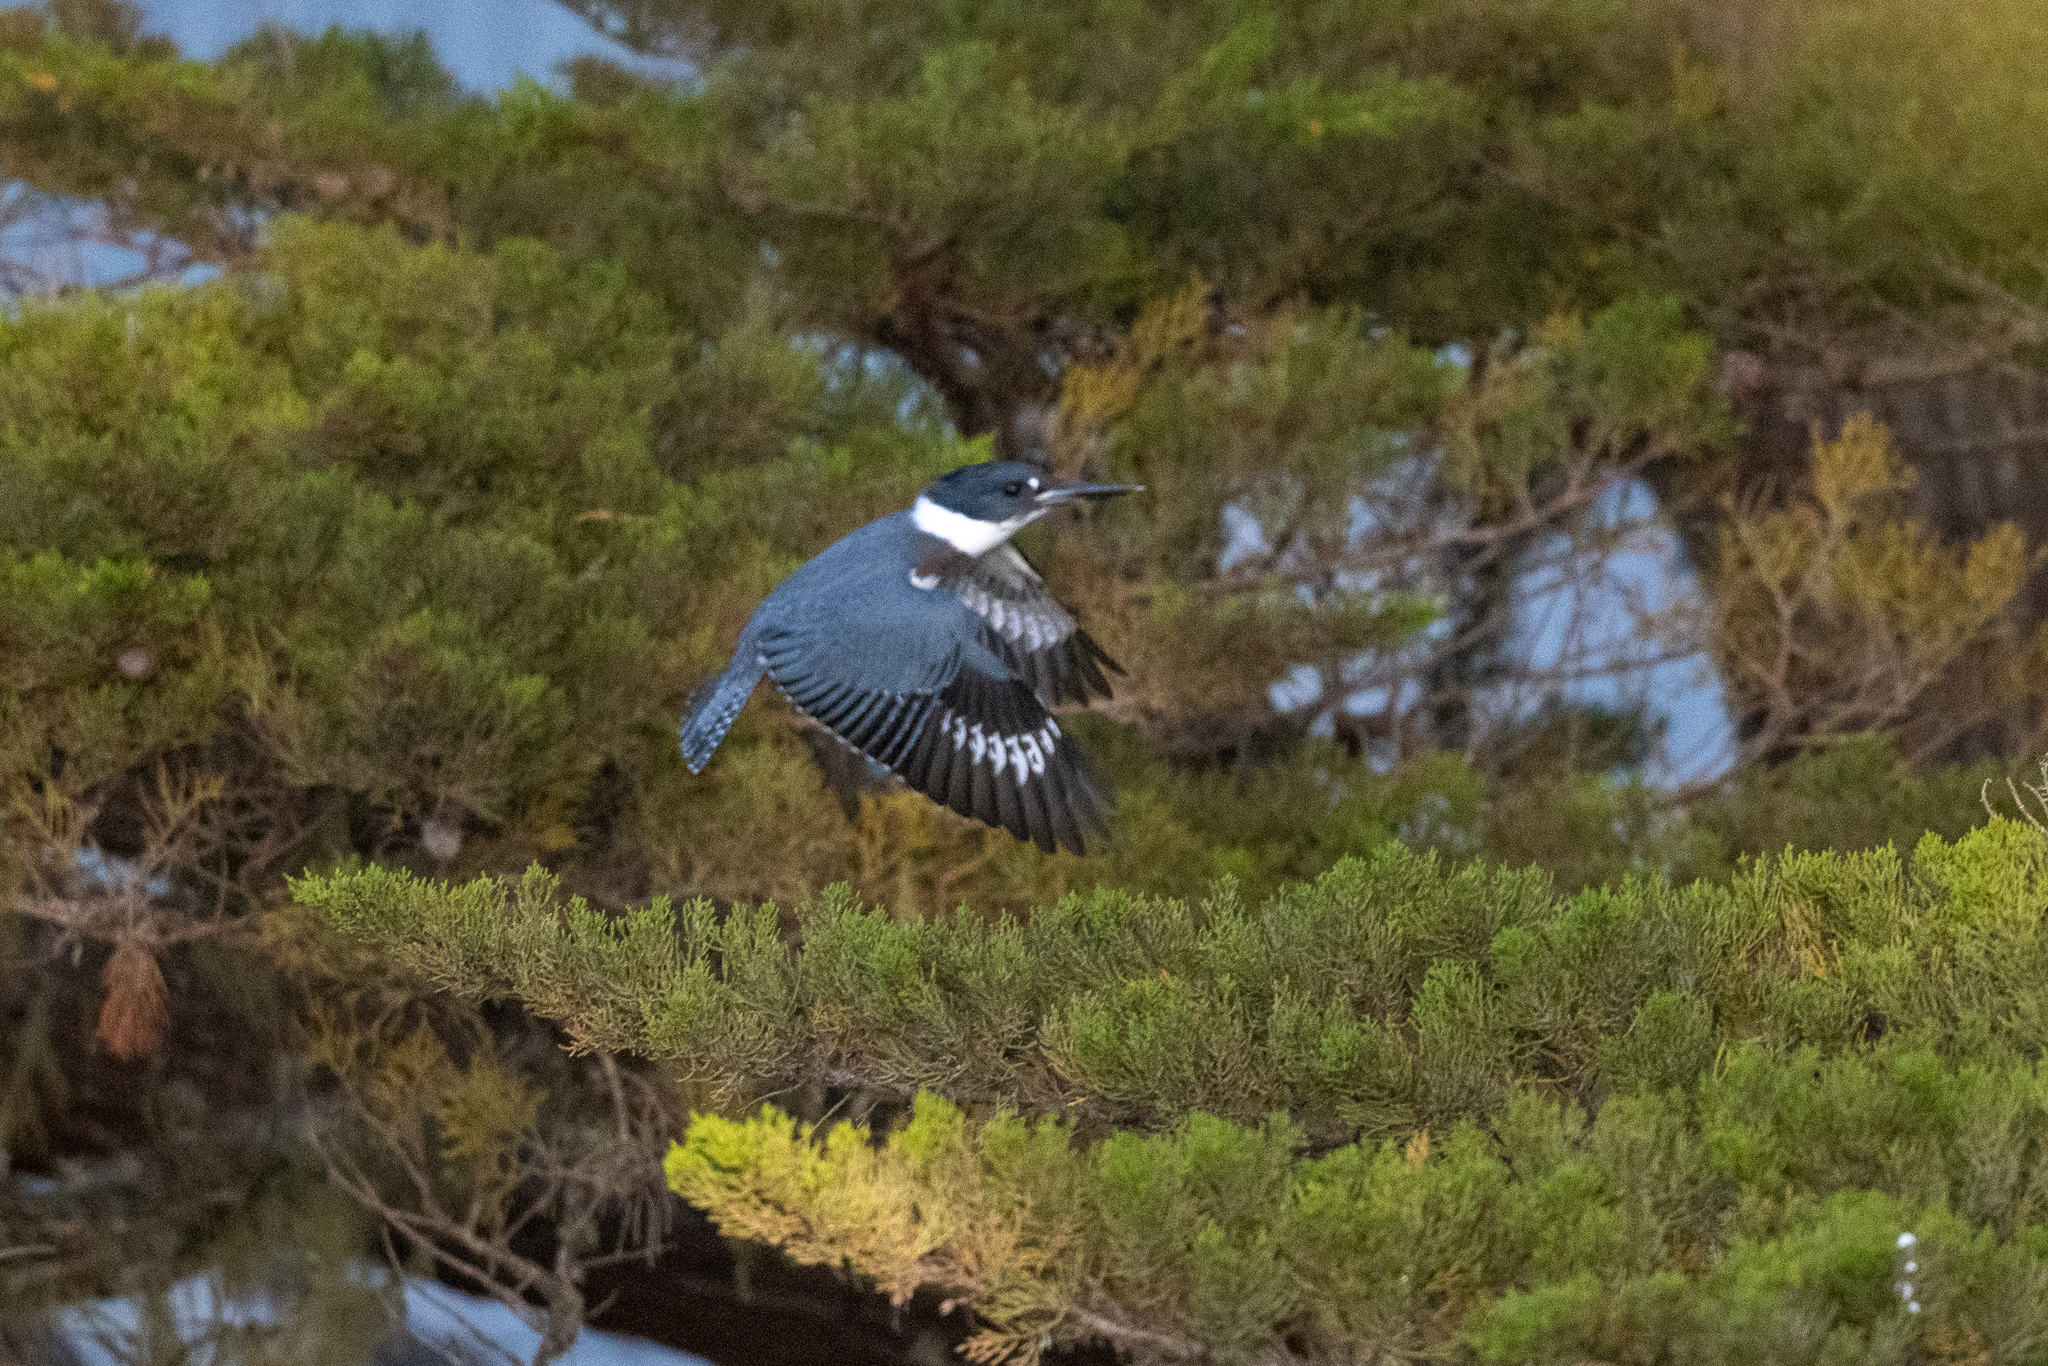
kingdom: Animalia
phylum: Chordata
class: Aves
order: Coraciiformes
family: Alcedinidae
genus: Megaceryle
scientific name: Megaceryle alcyon
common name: Belted kingfisher
